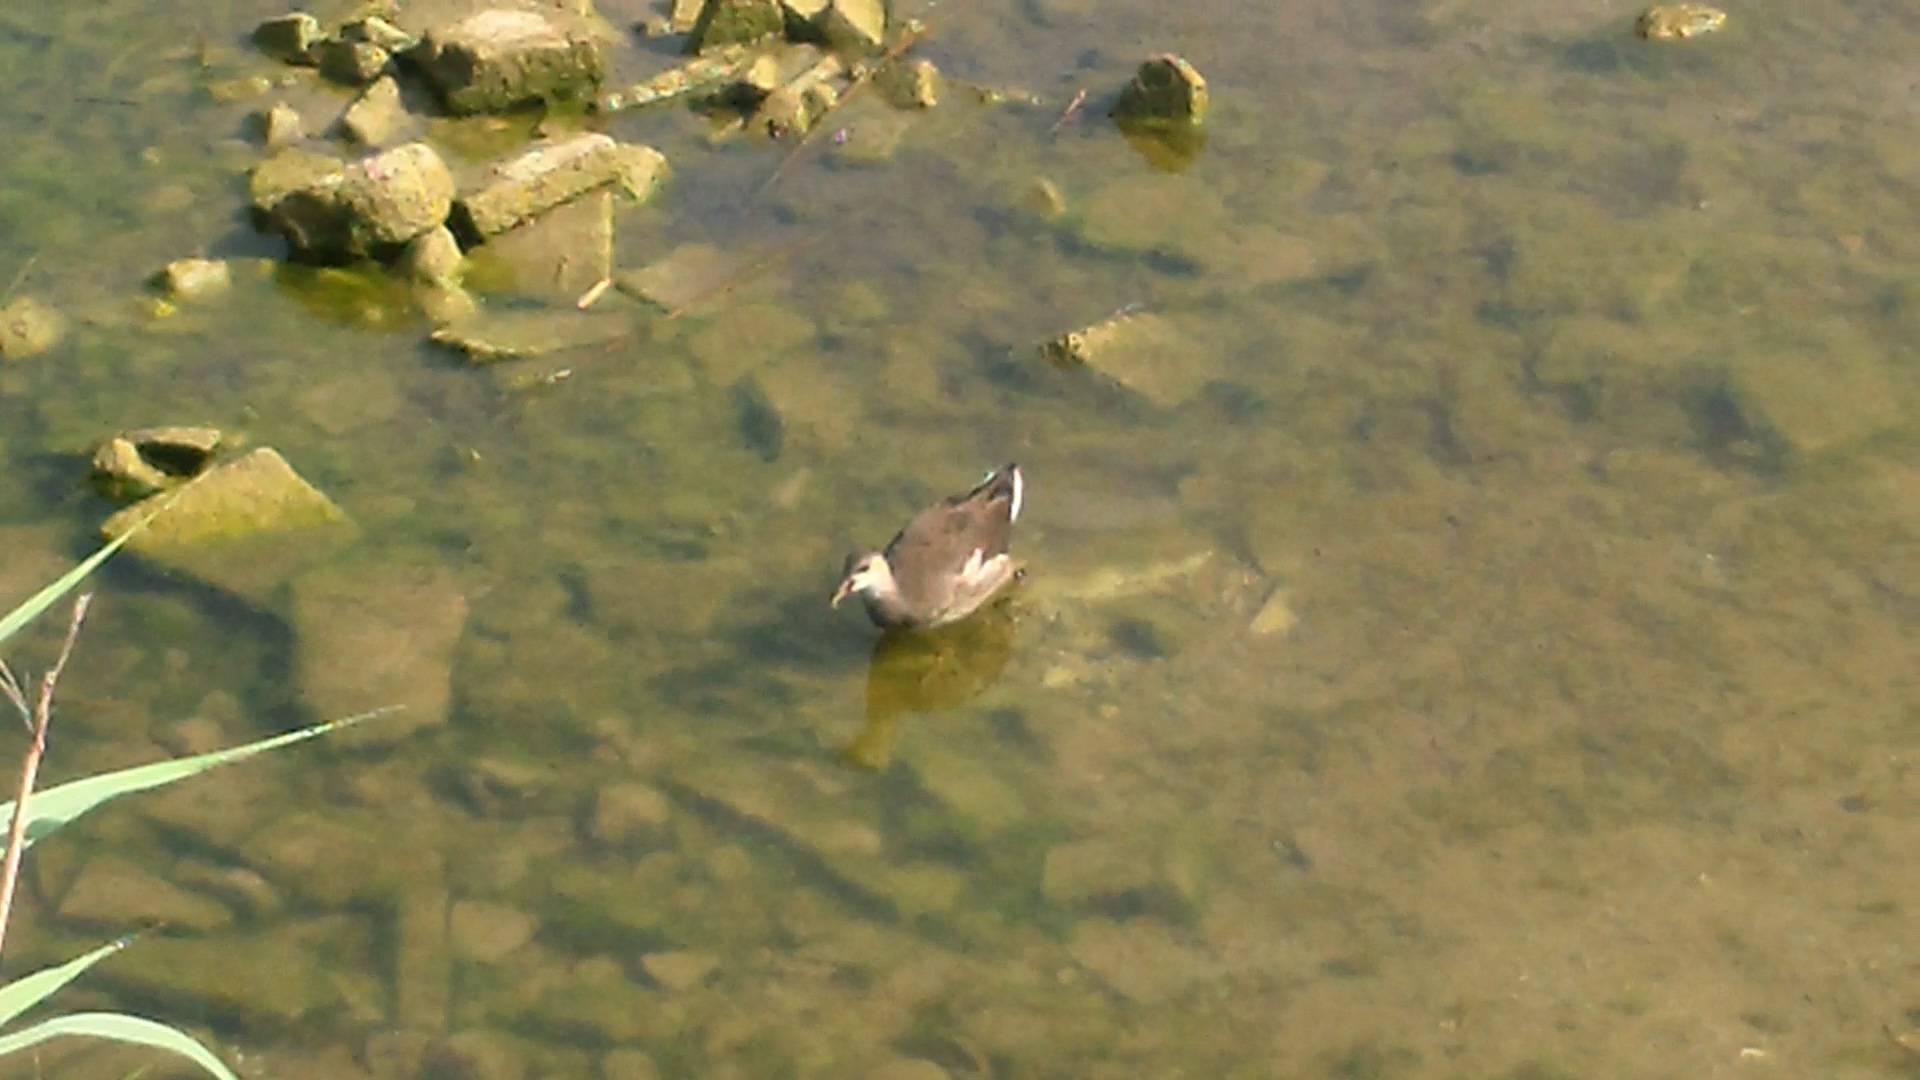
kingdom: Animalia
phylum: Chordata
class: Aves
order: Gruiformes
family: Rallidae
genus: Gallinula
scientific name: Gallinula chloropus
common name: Common moorhen
